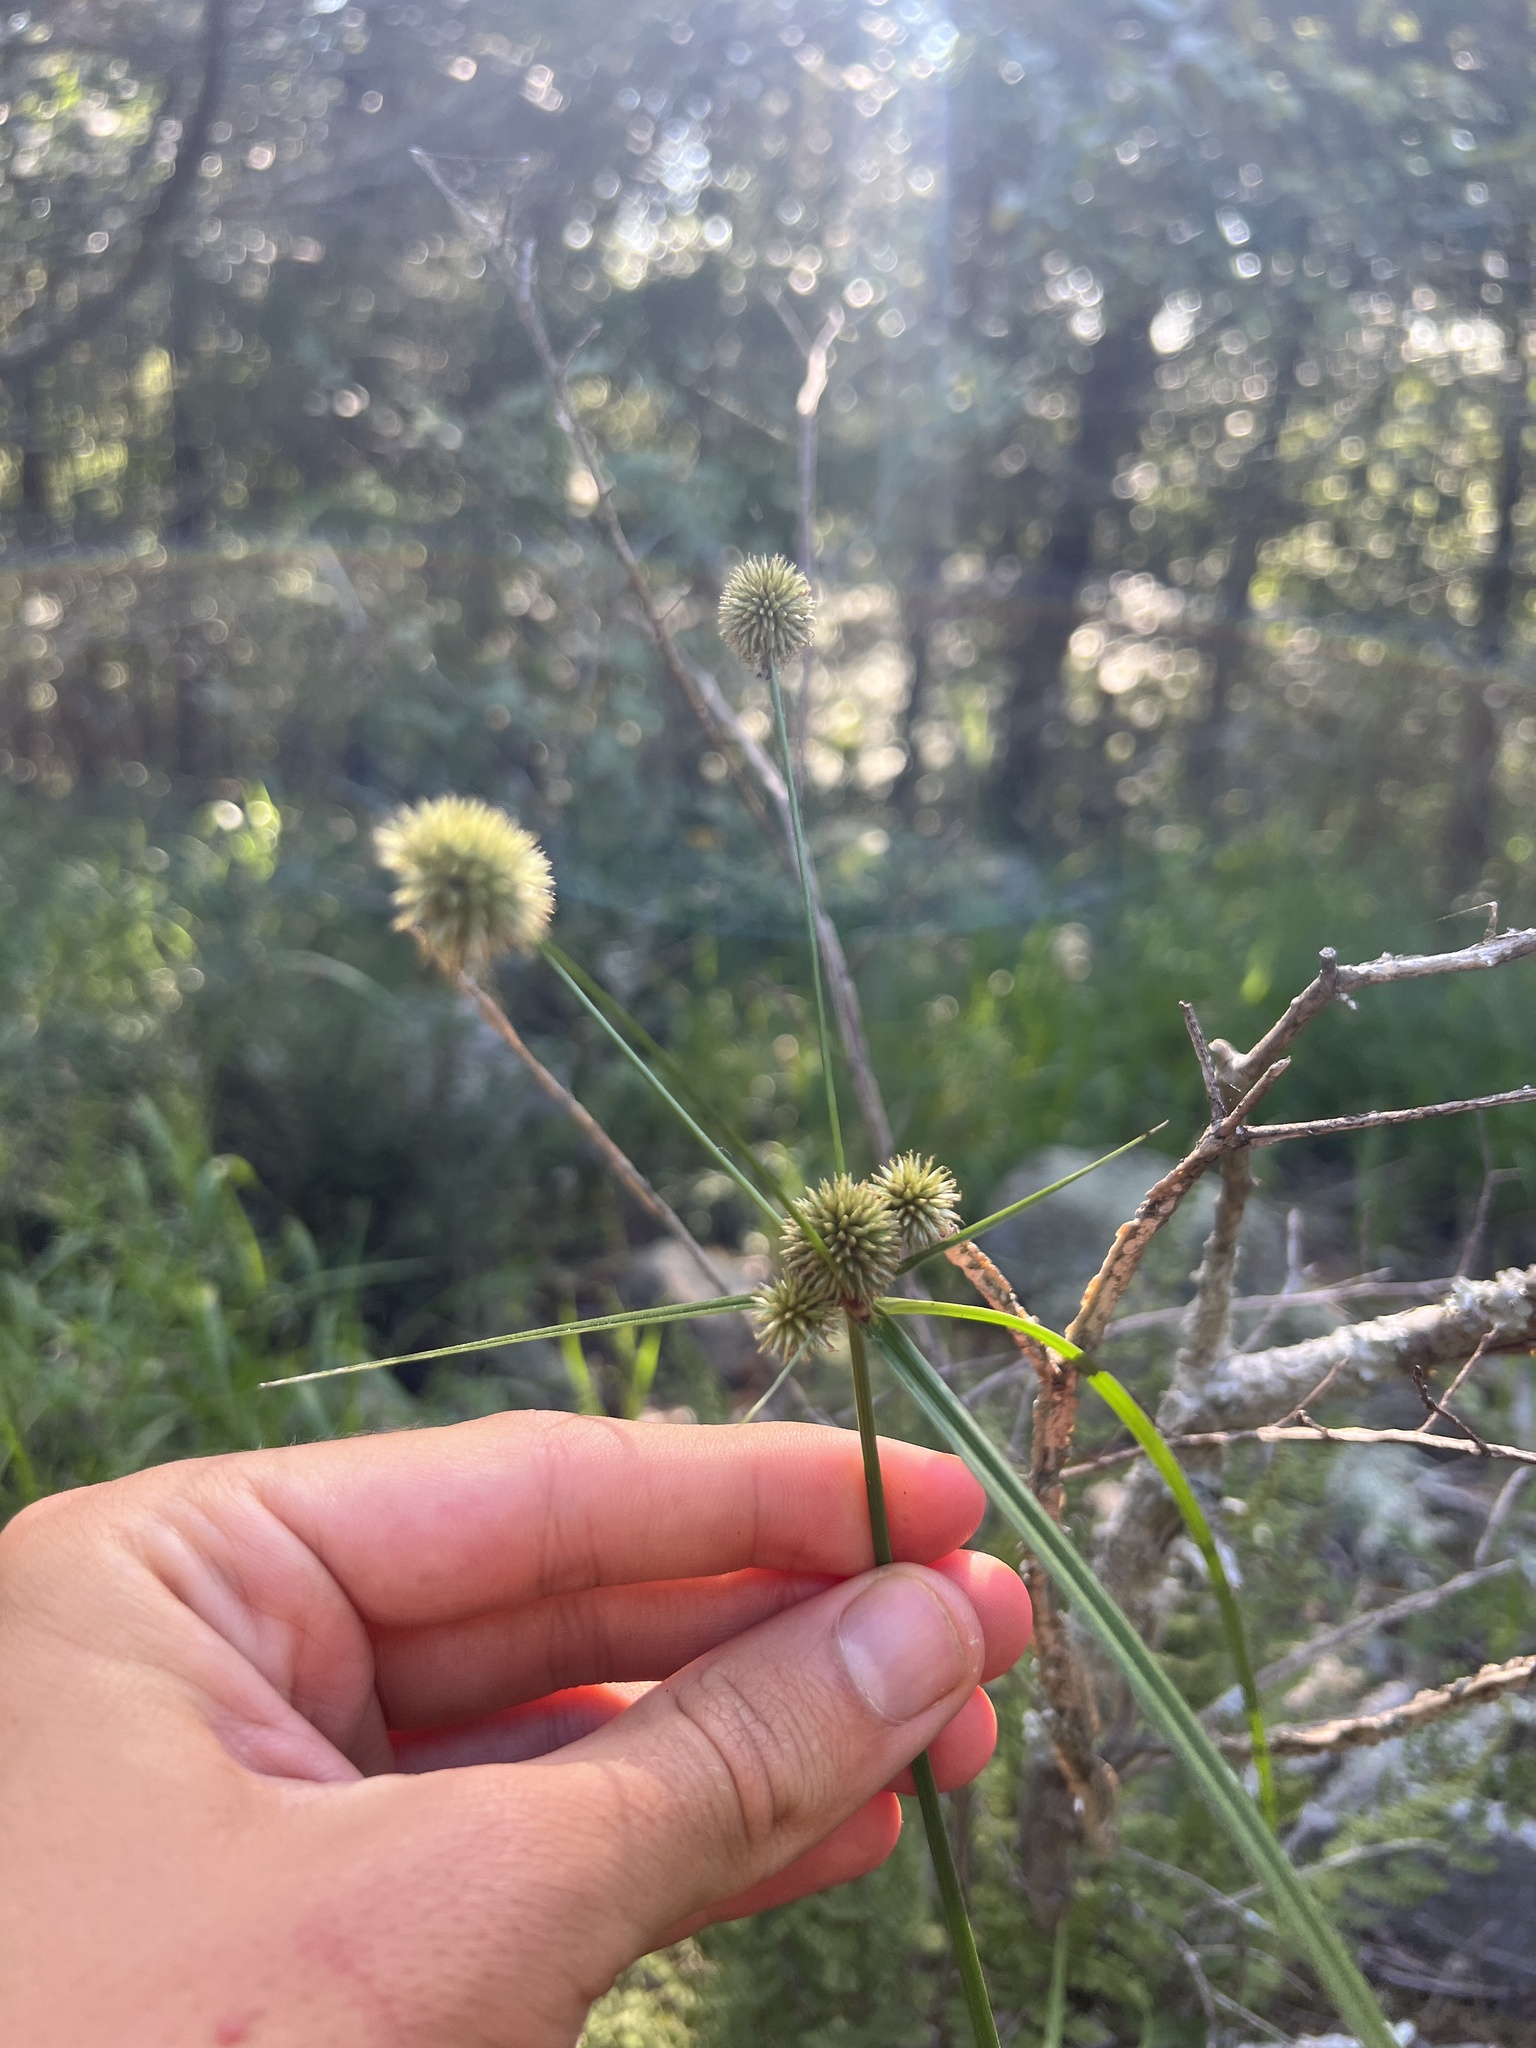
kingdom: Plantae
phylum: Tracheophyta
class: Liliopsida
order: Poales
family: Cyperaceae
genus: Cyperus
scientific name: Cyperus echinatus
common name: Teasel sedge
